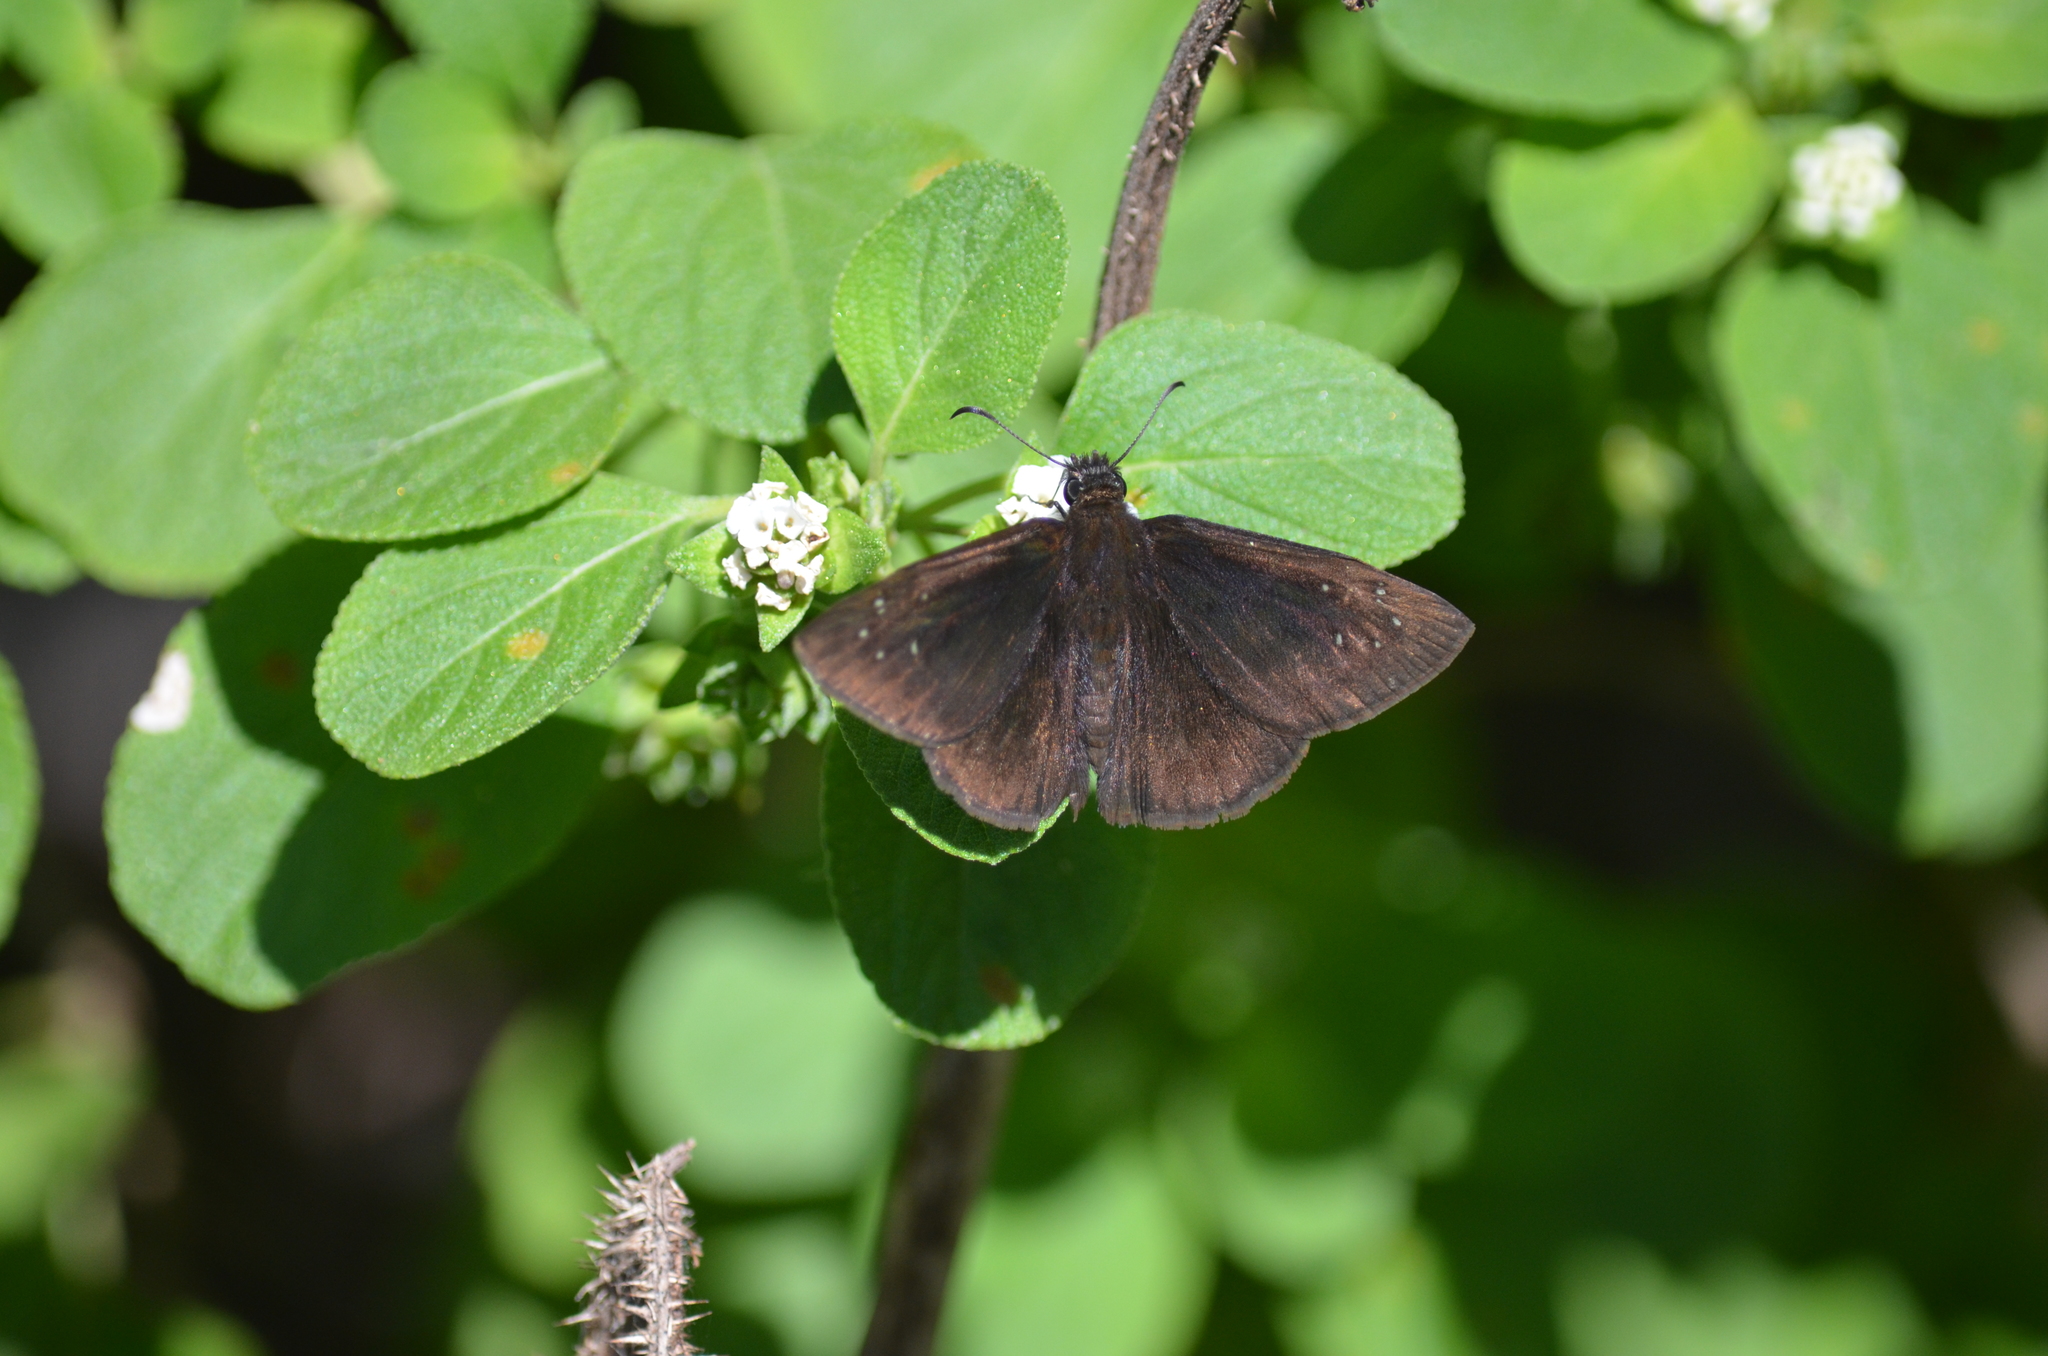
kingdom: Animalia
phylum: Arthropoda
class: Insecta
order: Lepidoptera
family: Hesperiidae
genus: Ephyriades
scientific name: Ephyriades brunnea
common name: Florida duskywing
